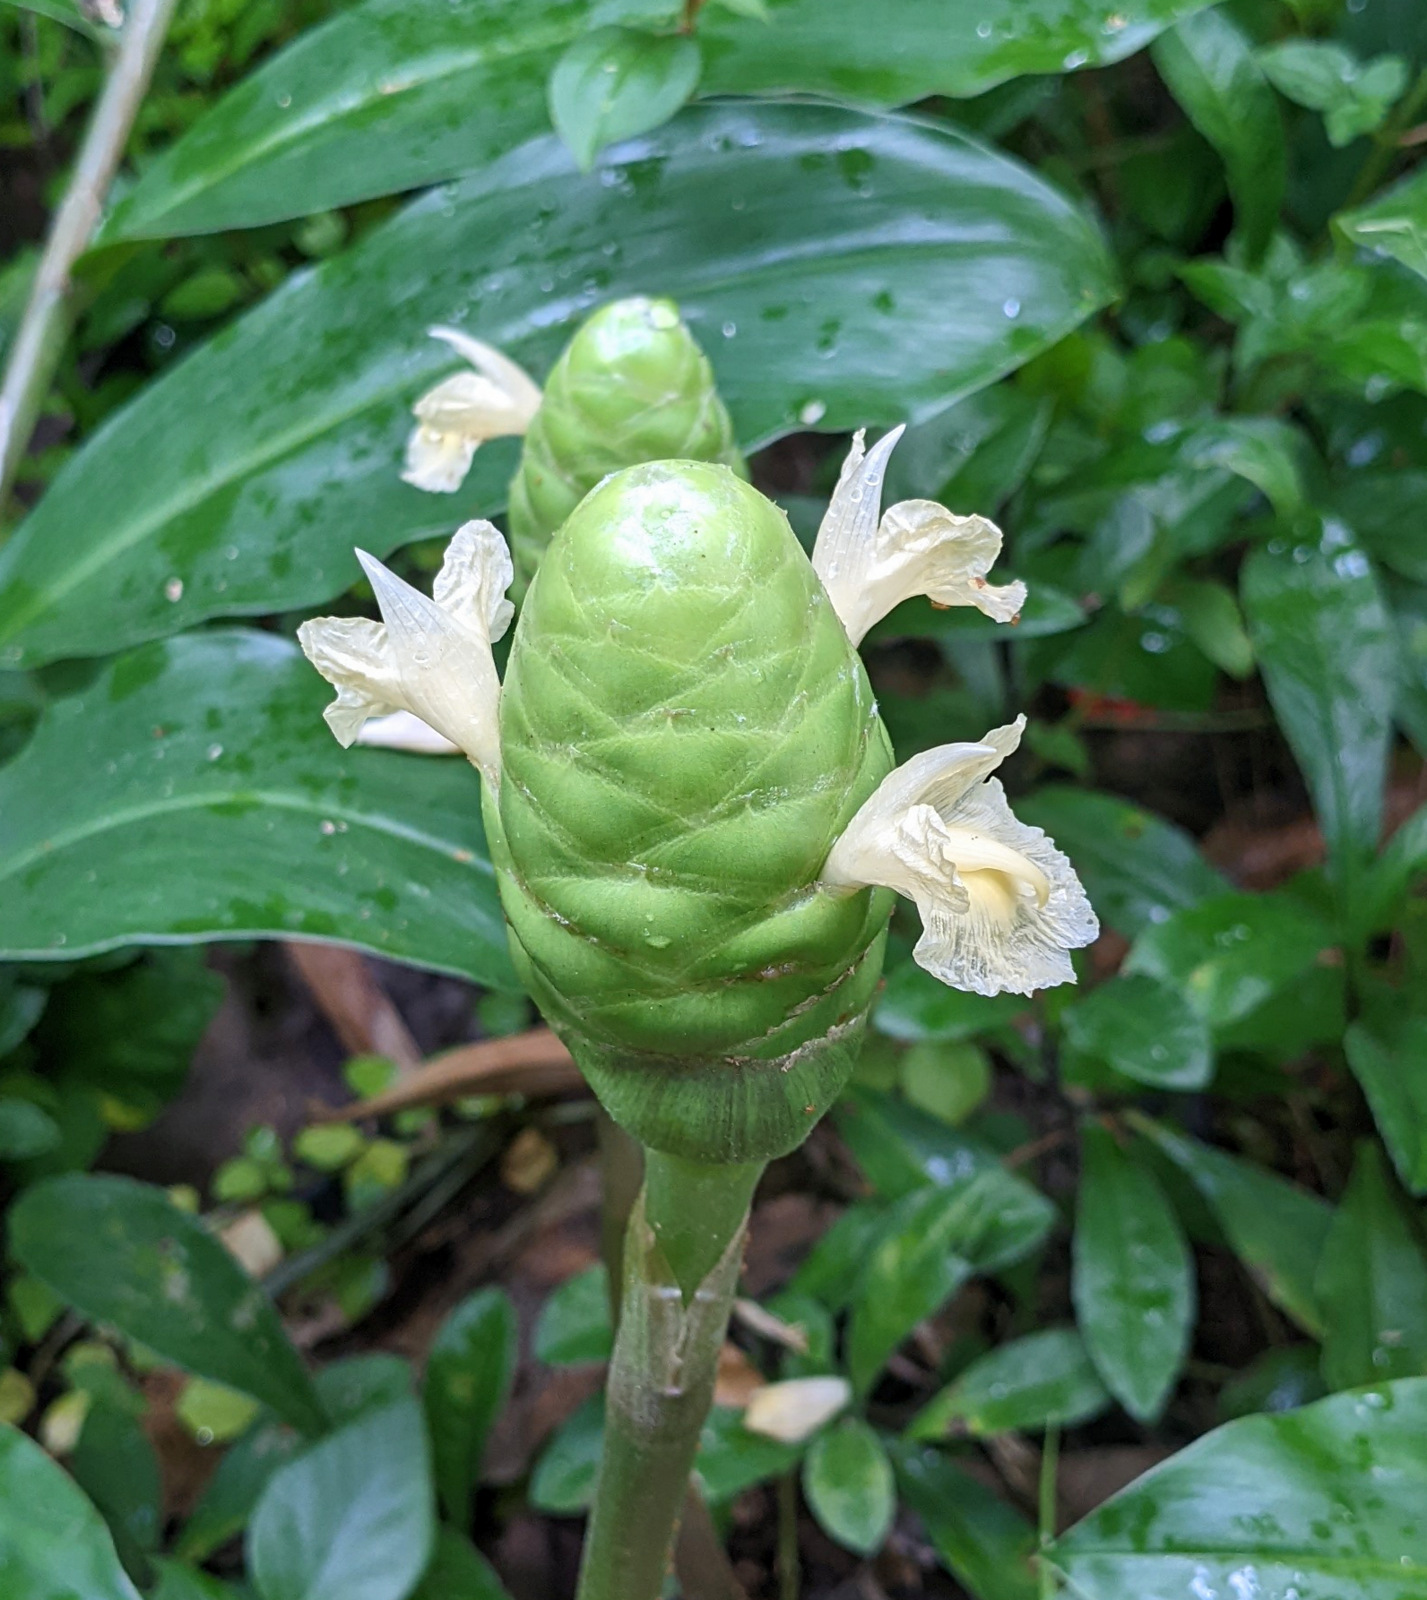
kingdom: Plantae
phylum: Tracheophyta
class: Liliopsida
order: Zingiberales
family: Zingiberaceae
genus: Zingiber
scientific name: Zingiber zerumbet
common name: Bitter ginger
